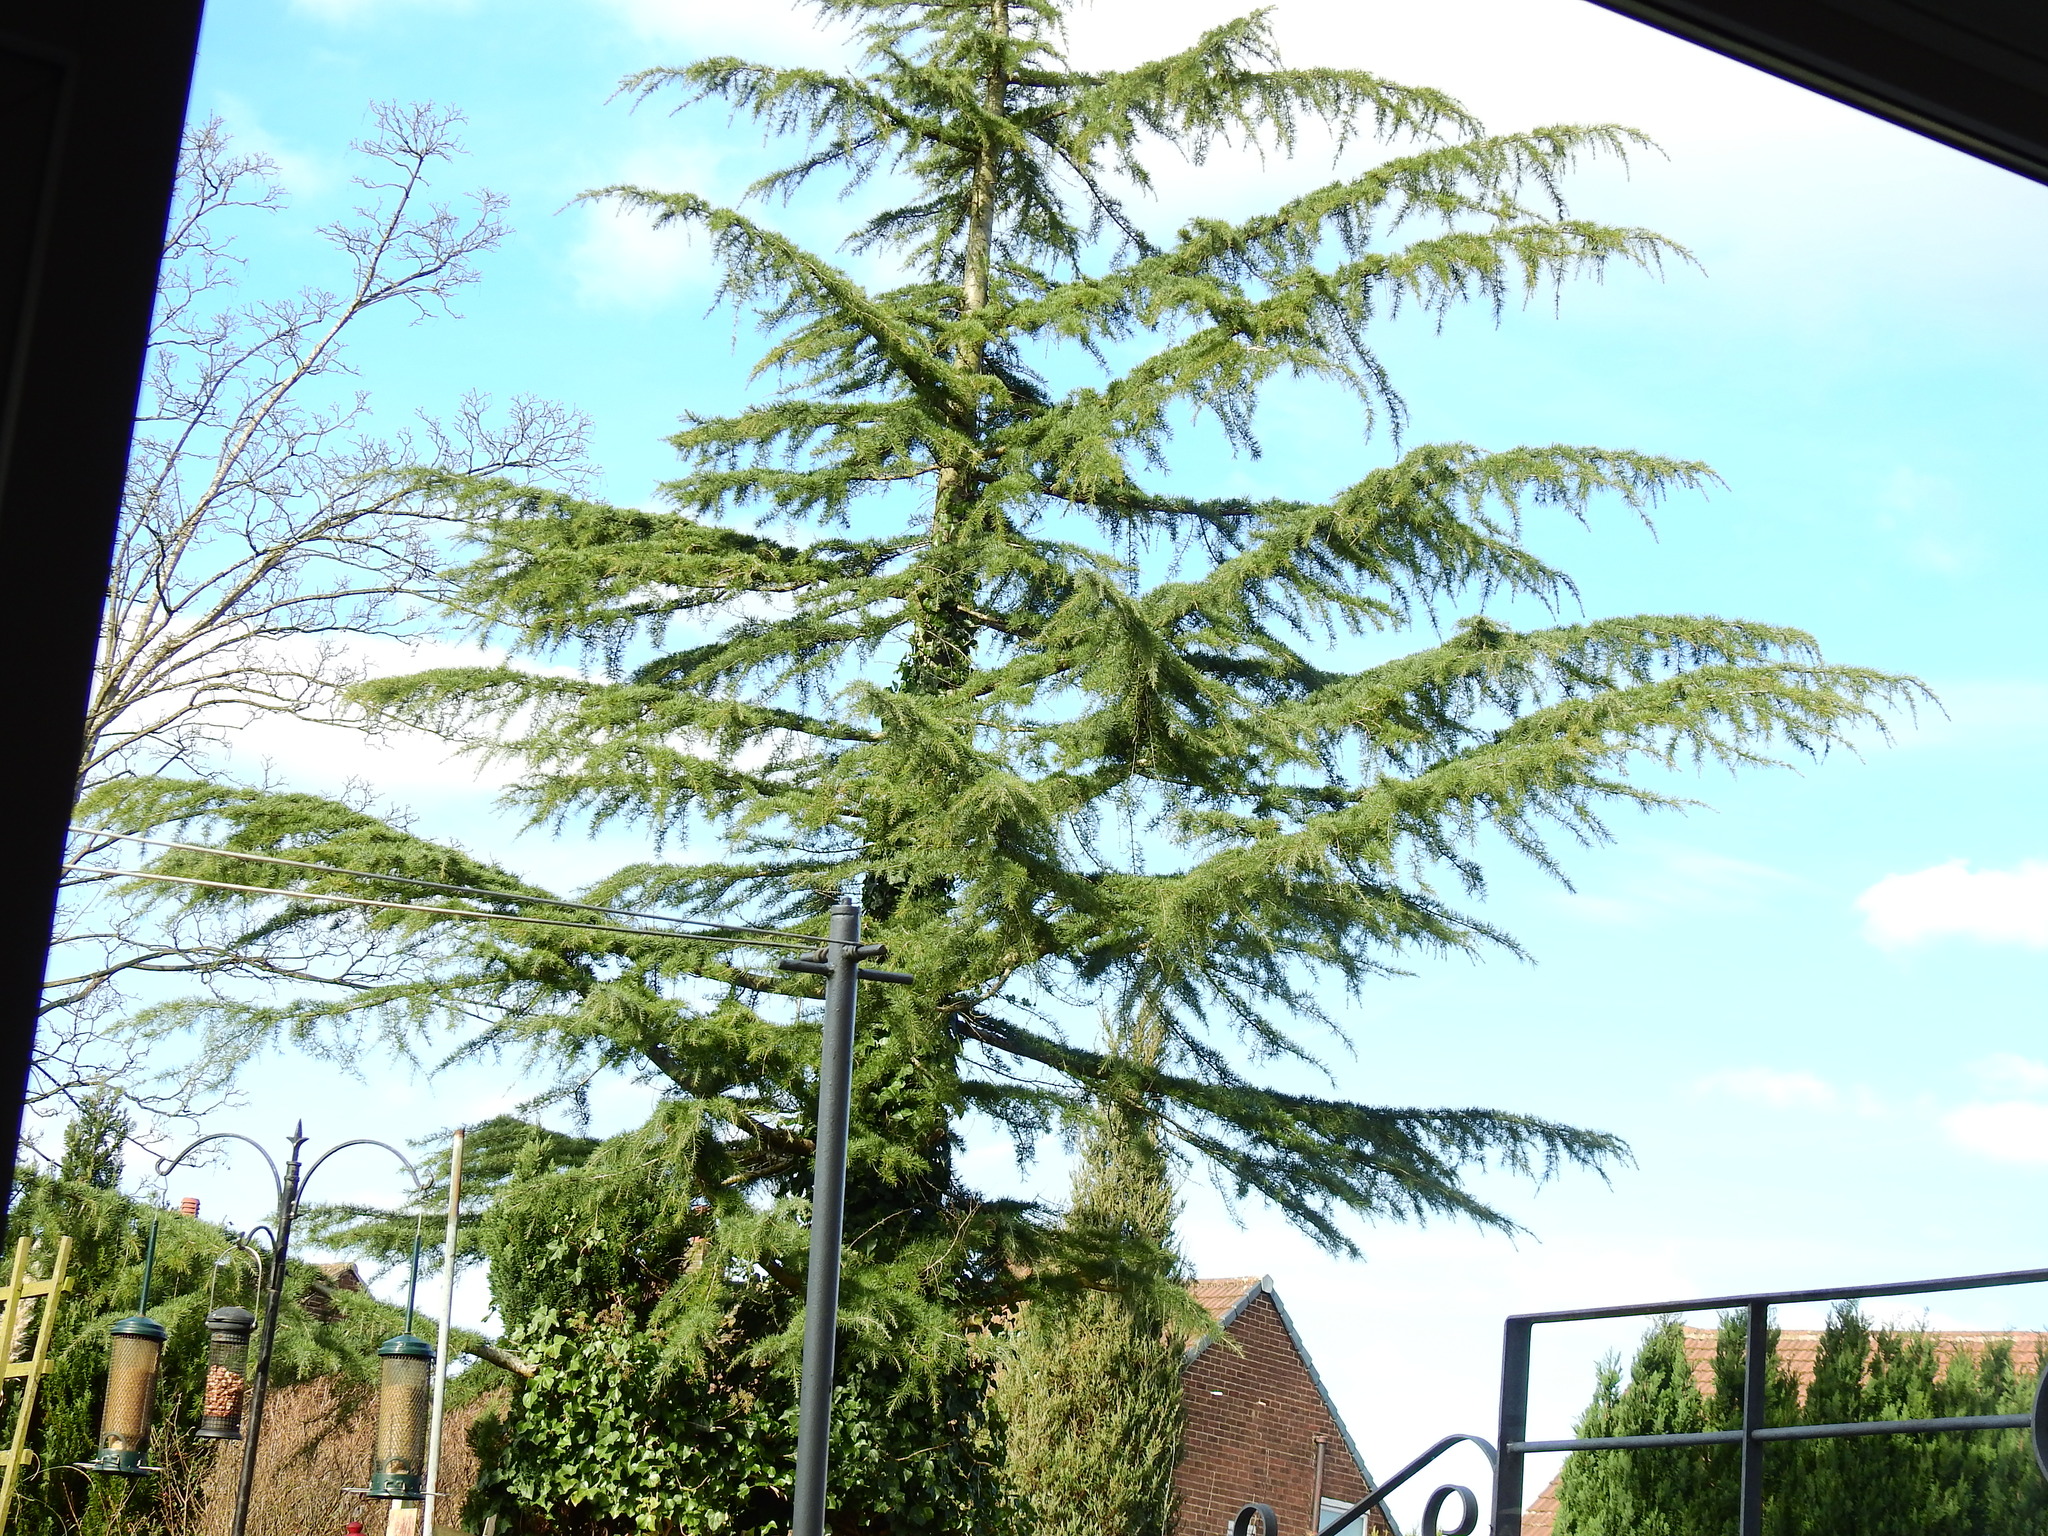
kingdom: Plantae
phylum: Tracheophyta
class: Pinopsida
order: Pinales
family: Pinaceae
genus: Cedrus
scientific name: Cedrus deodara
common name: Deodar
